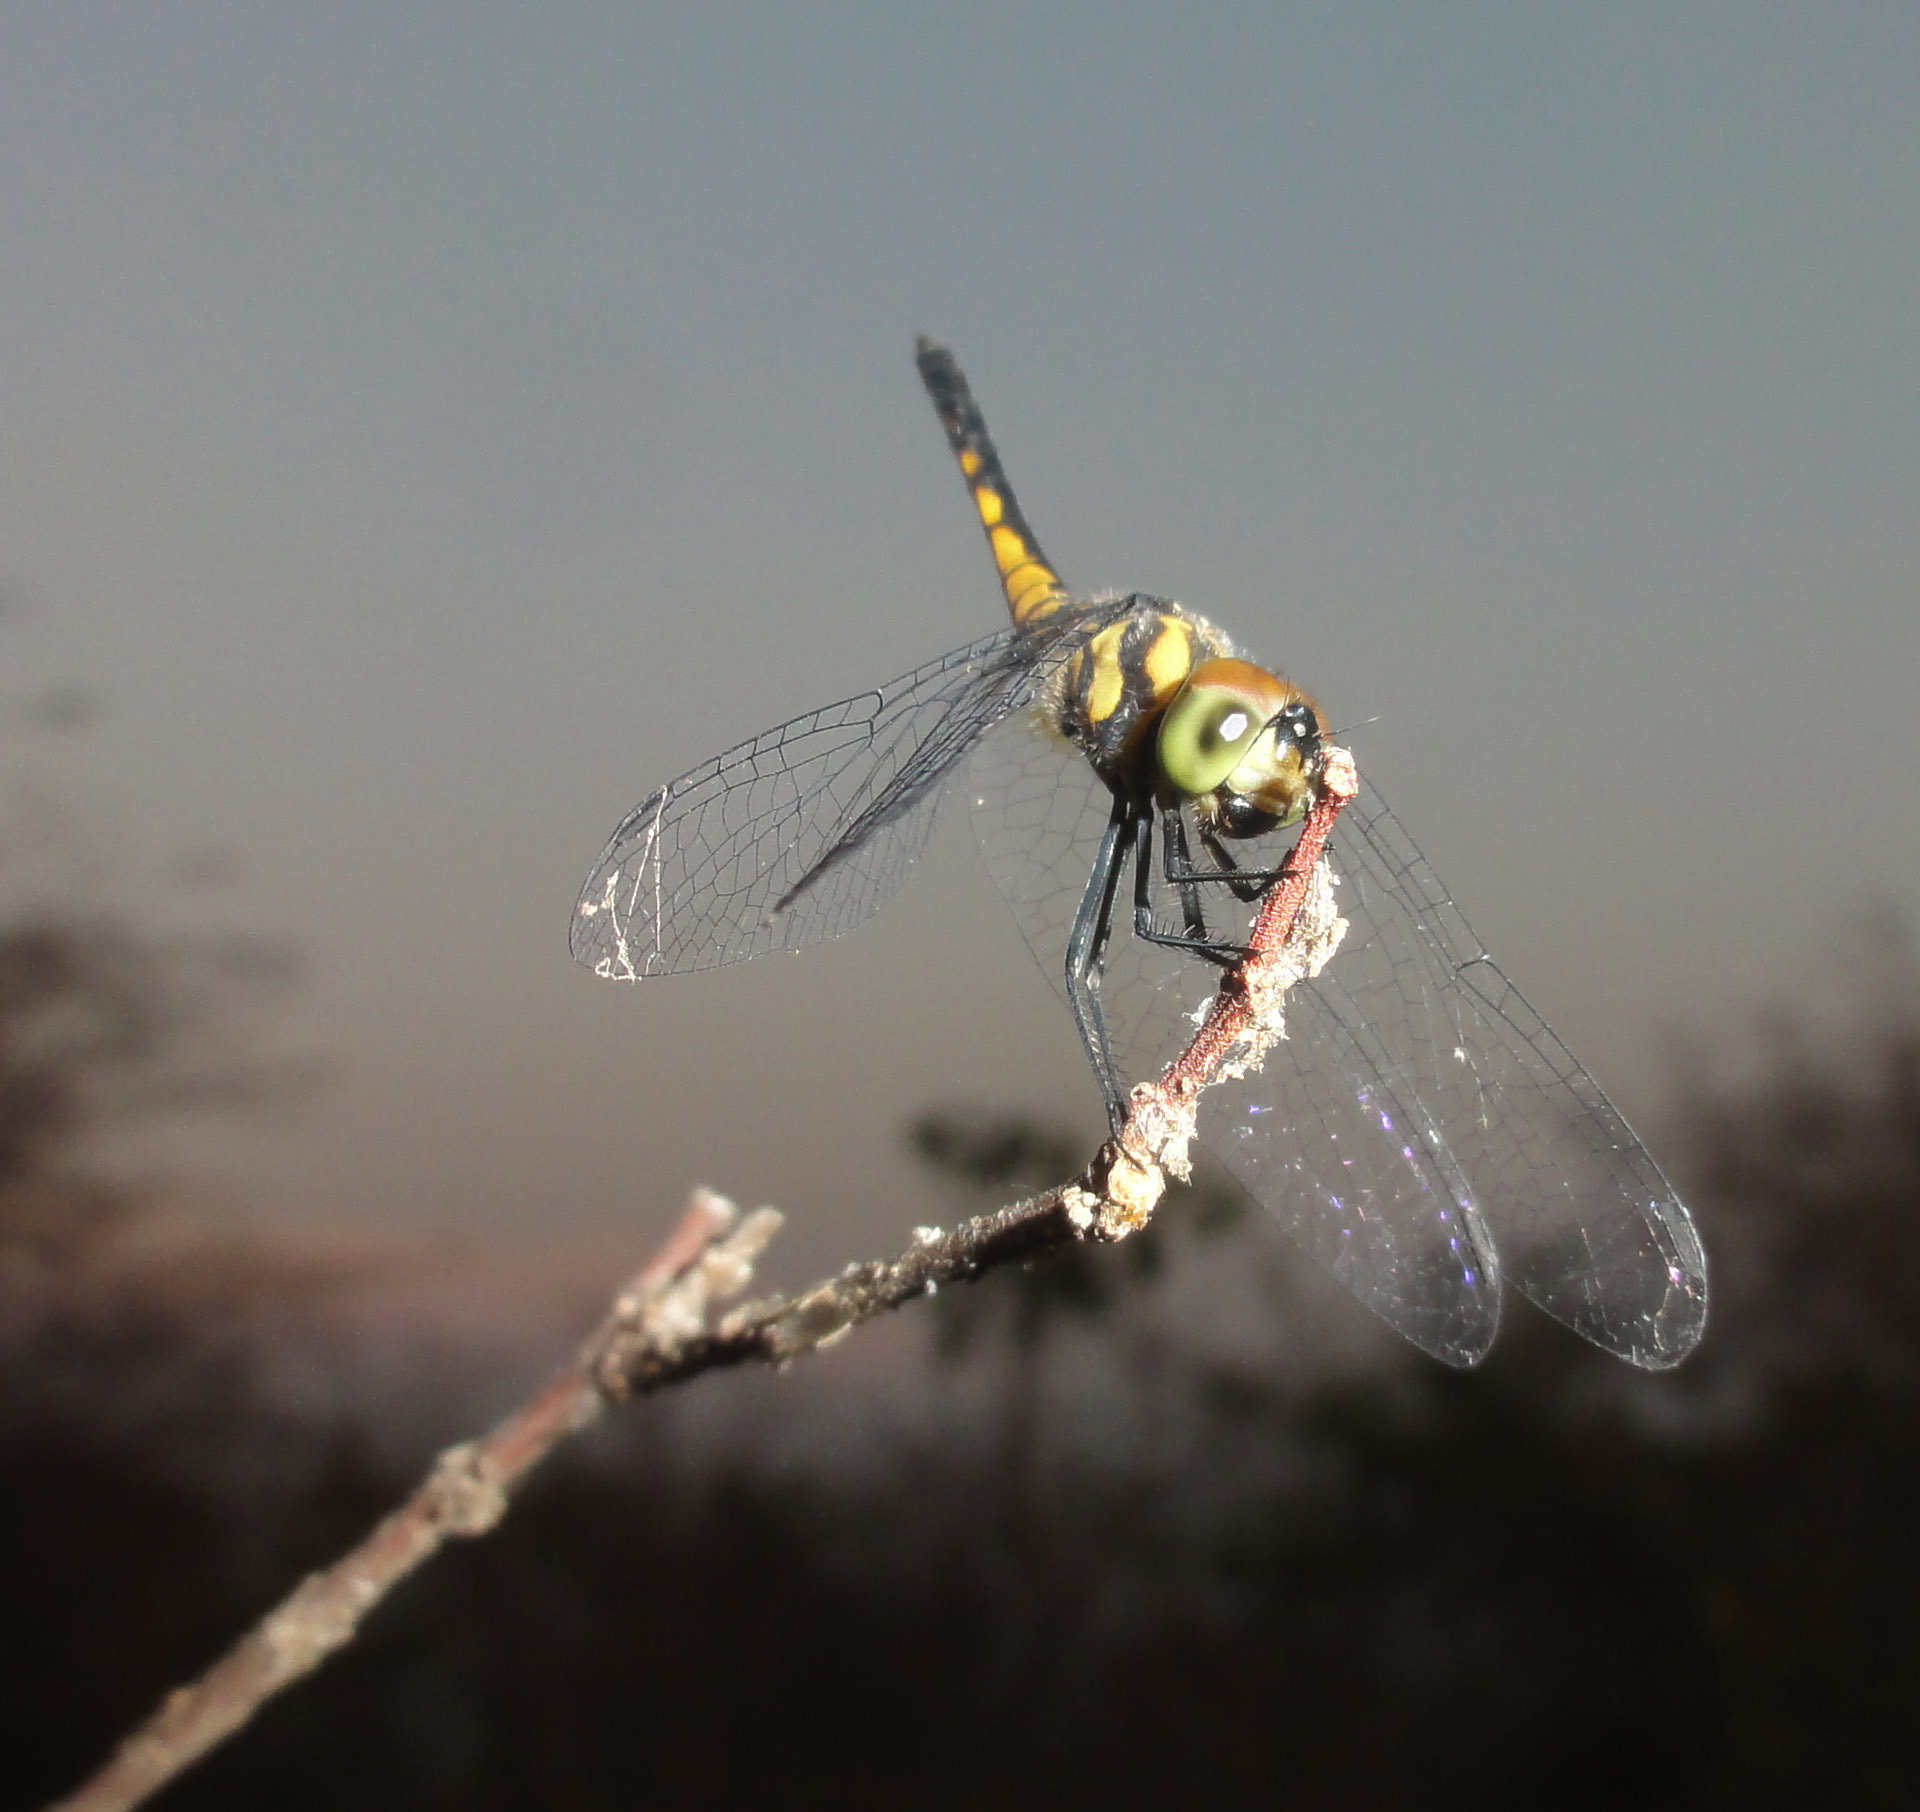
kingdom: Animalia
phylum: Arthropoda
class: Insecta
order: Odonata
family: Libellulidae
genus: Aethriamanta
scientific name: Aethriamanta aethra
